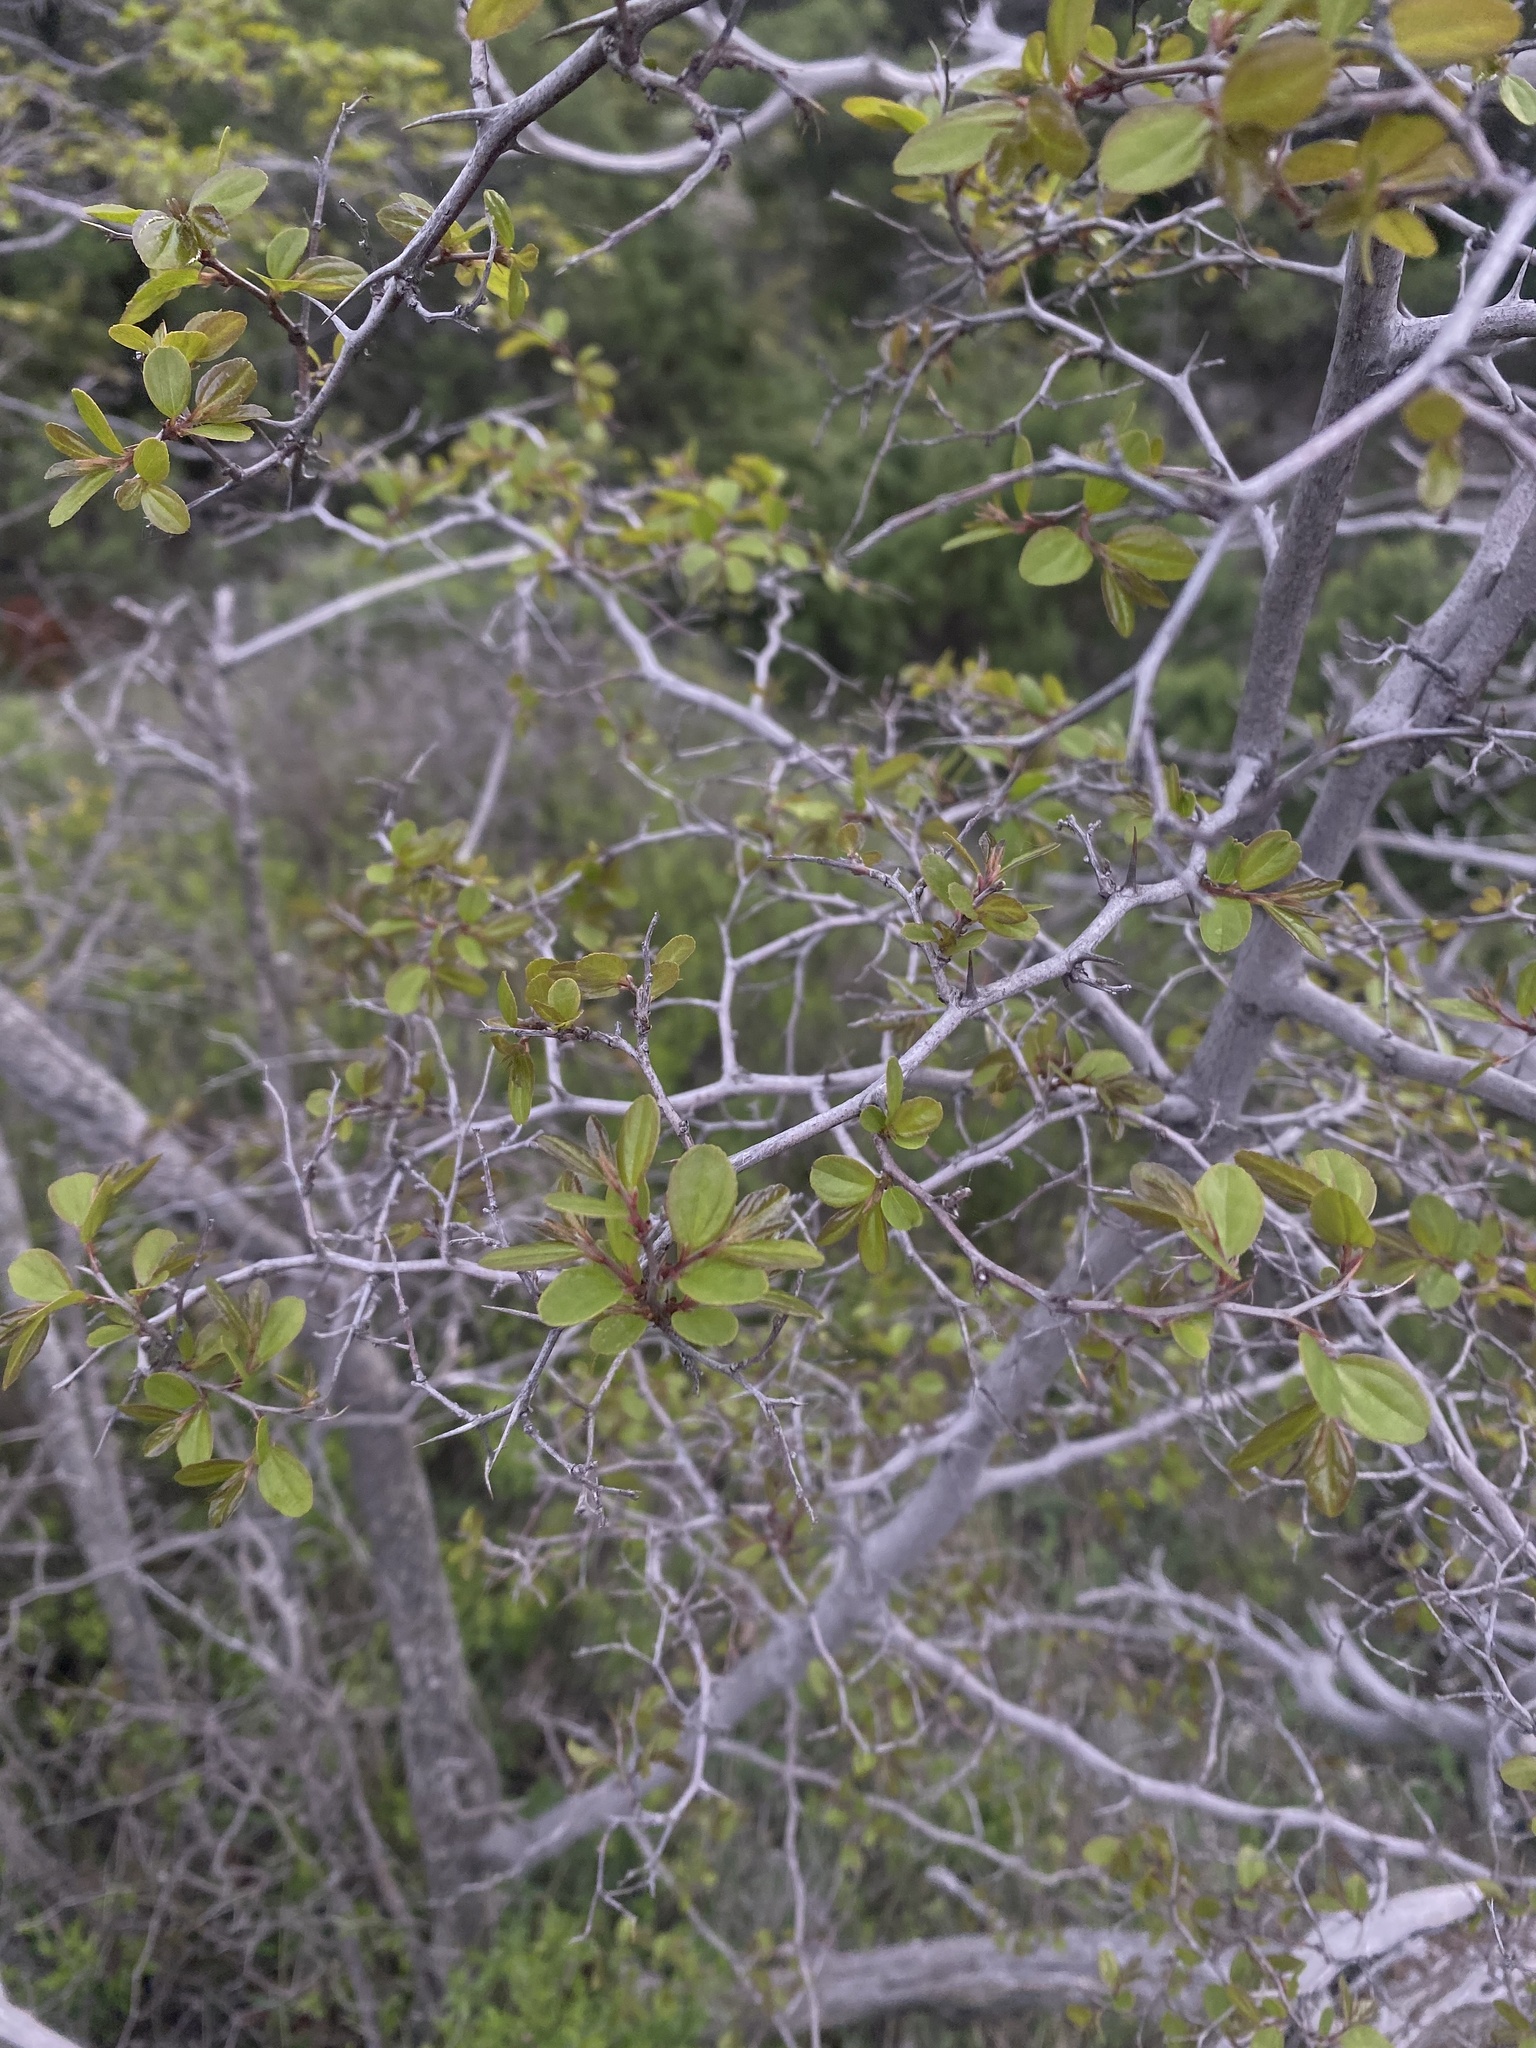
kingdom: Plantae
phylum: Tracheophyta
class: Magnoliopsida
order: Rosales
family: Rhamnaceae
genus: Paliurus
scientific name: Paliurus spina-christi
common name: Jeruselem thorn
